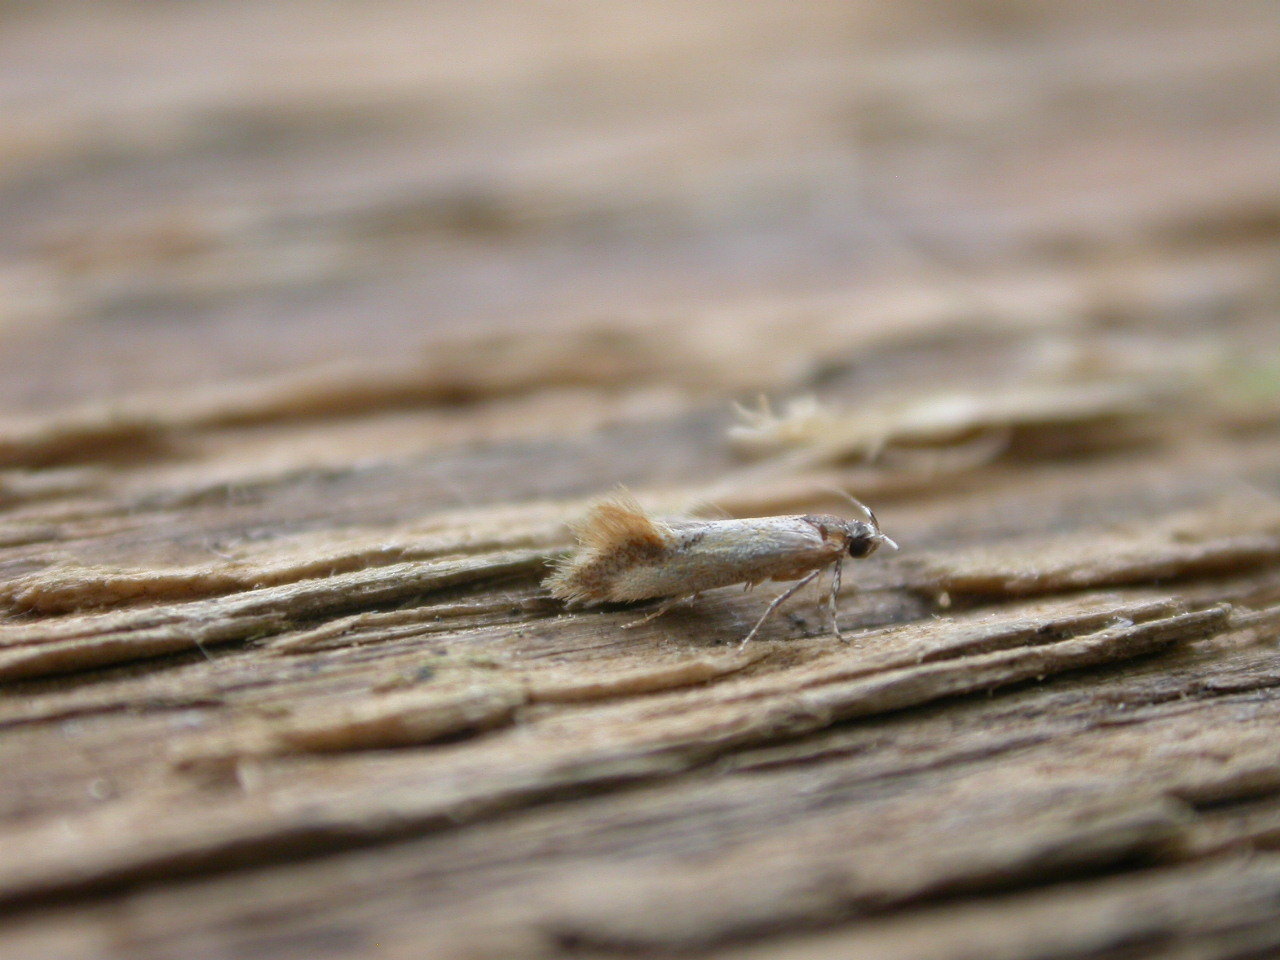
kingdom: Animalia
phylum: Arthropoda
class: Insecta
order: Lepidoptera
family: Oecophoridae
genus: Batia
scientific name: Batia lunaris
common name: Moth
